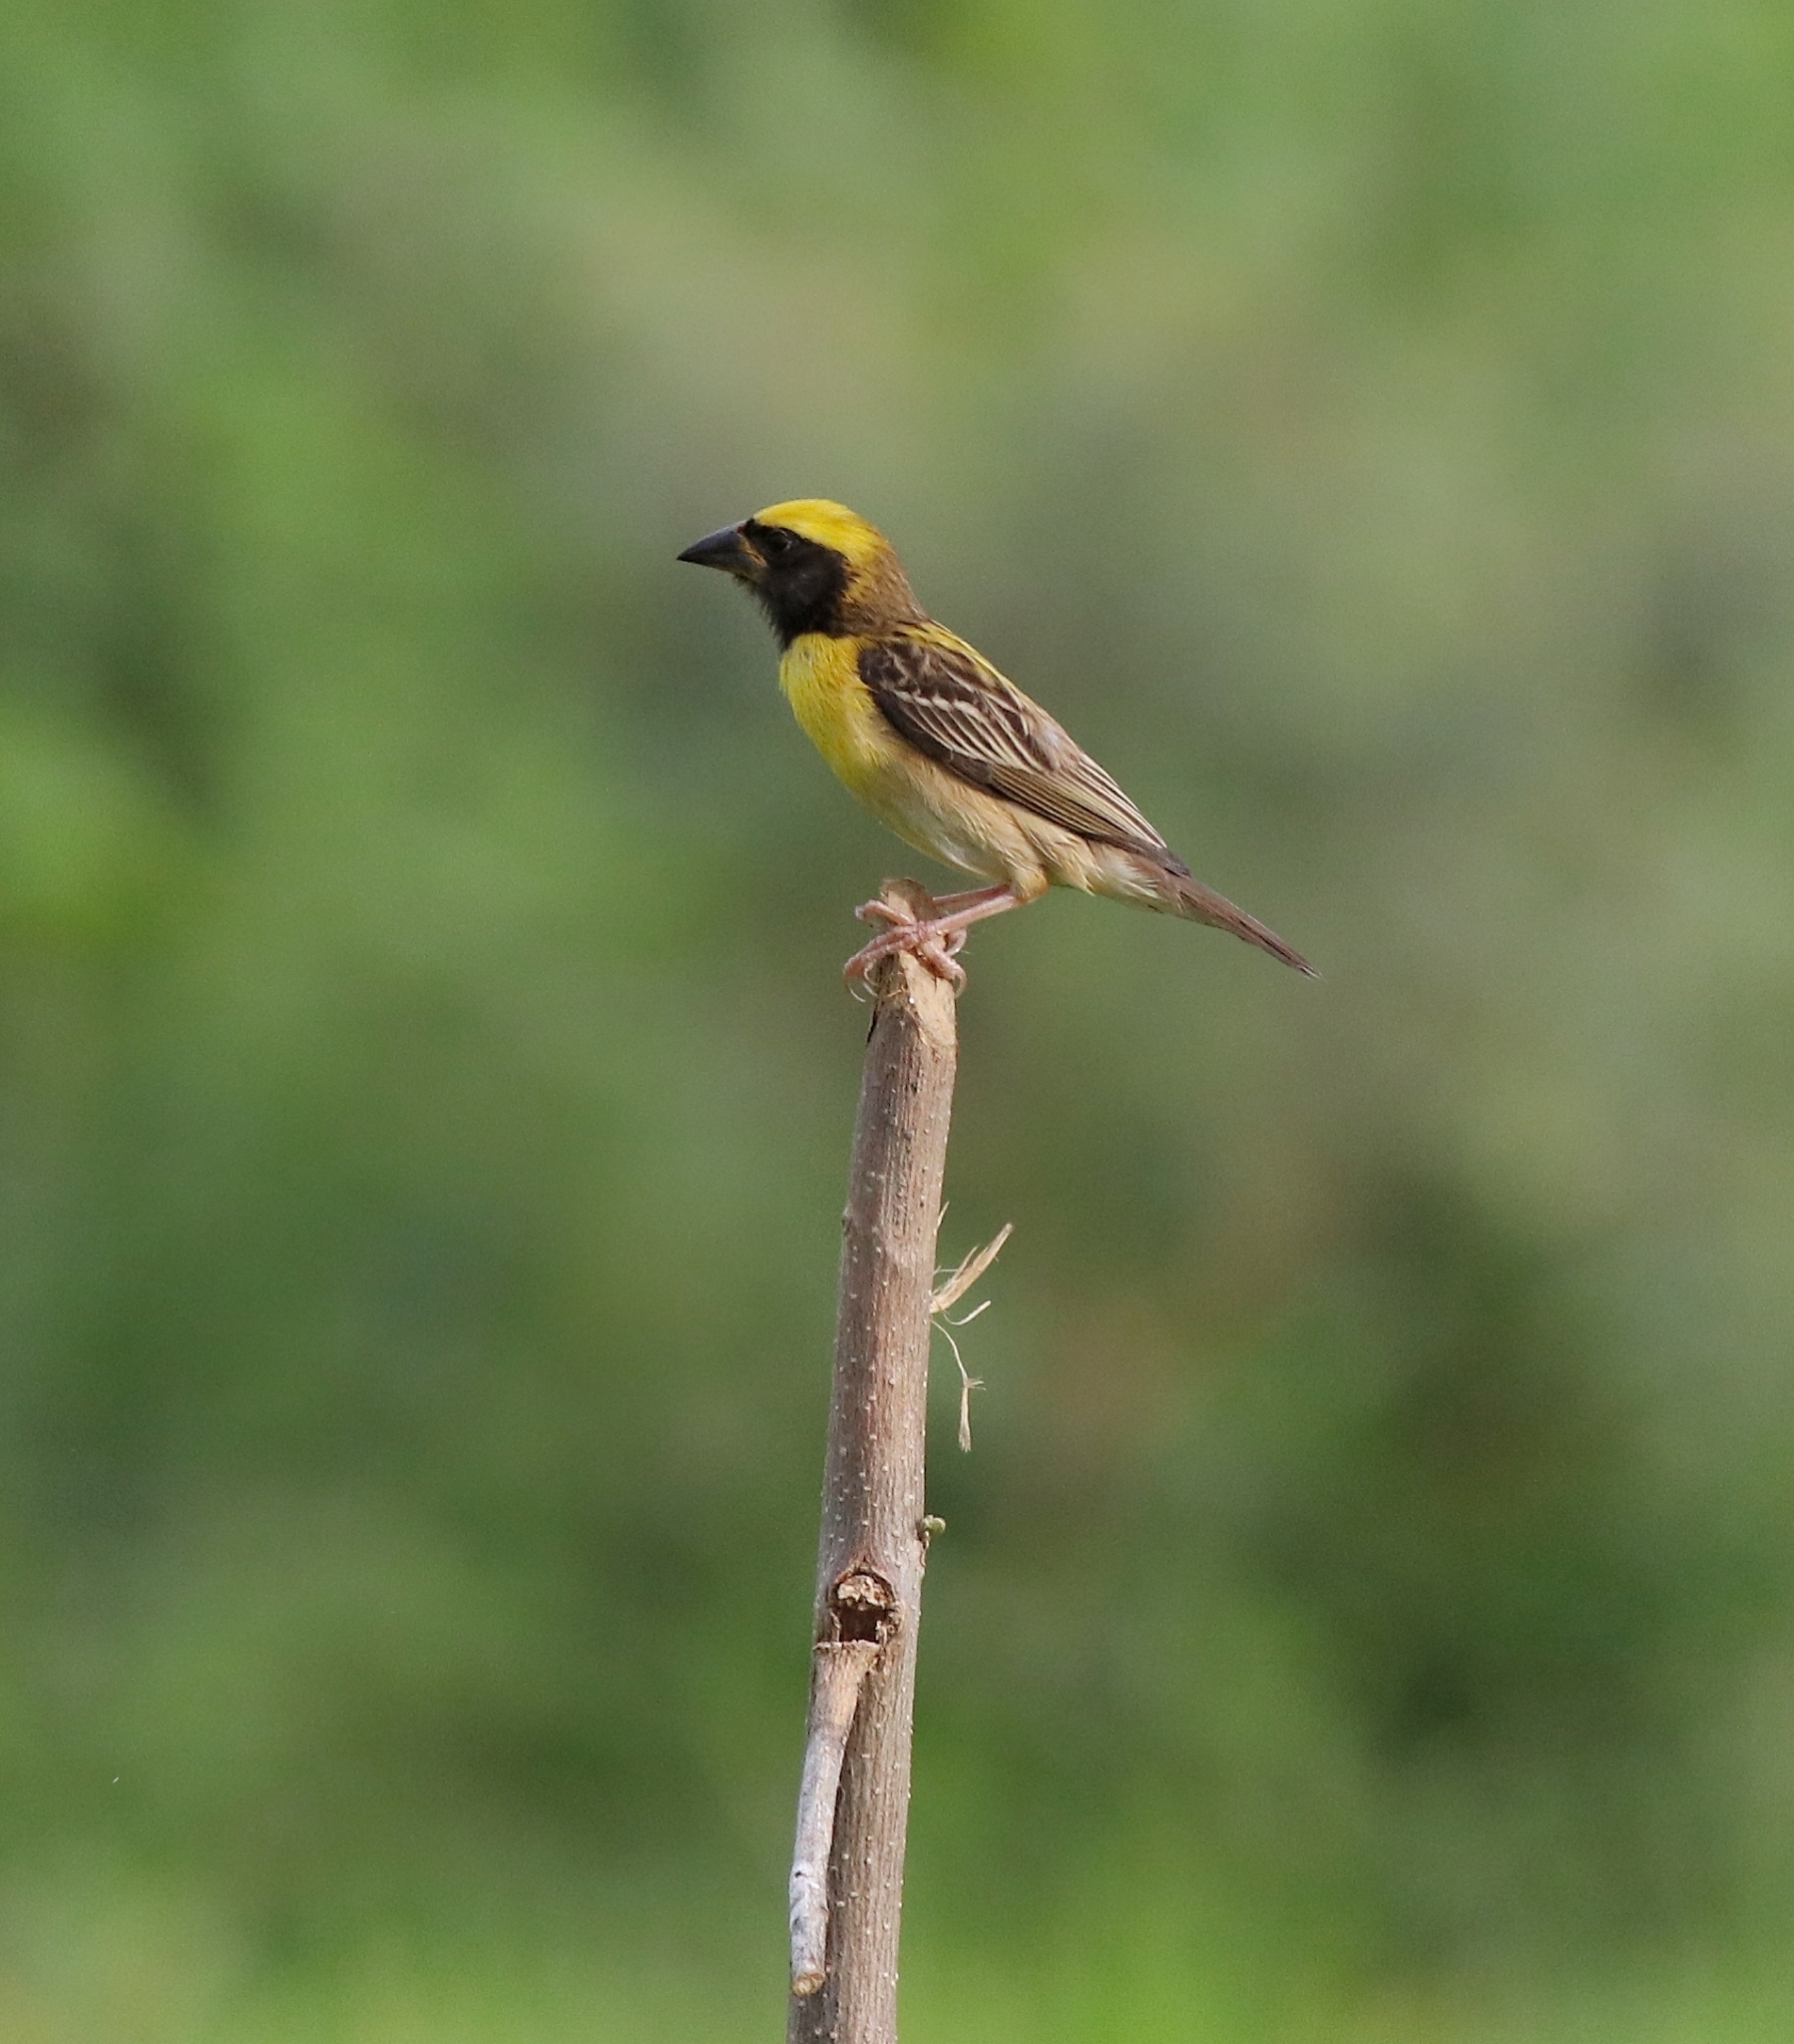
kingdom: Animalia
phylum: Chordata
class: Aves
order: Passeriformes
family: Ploceidae
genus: Ploceus
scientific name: Ploceus philippinus
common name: Baya weaver
